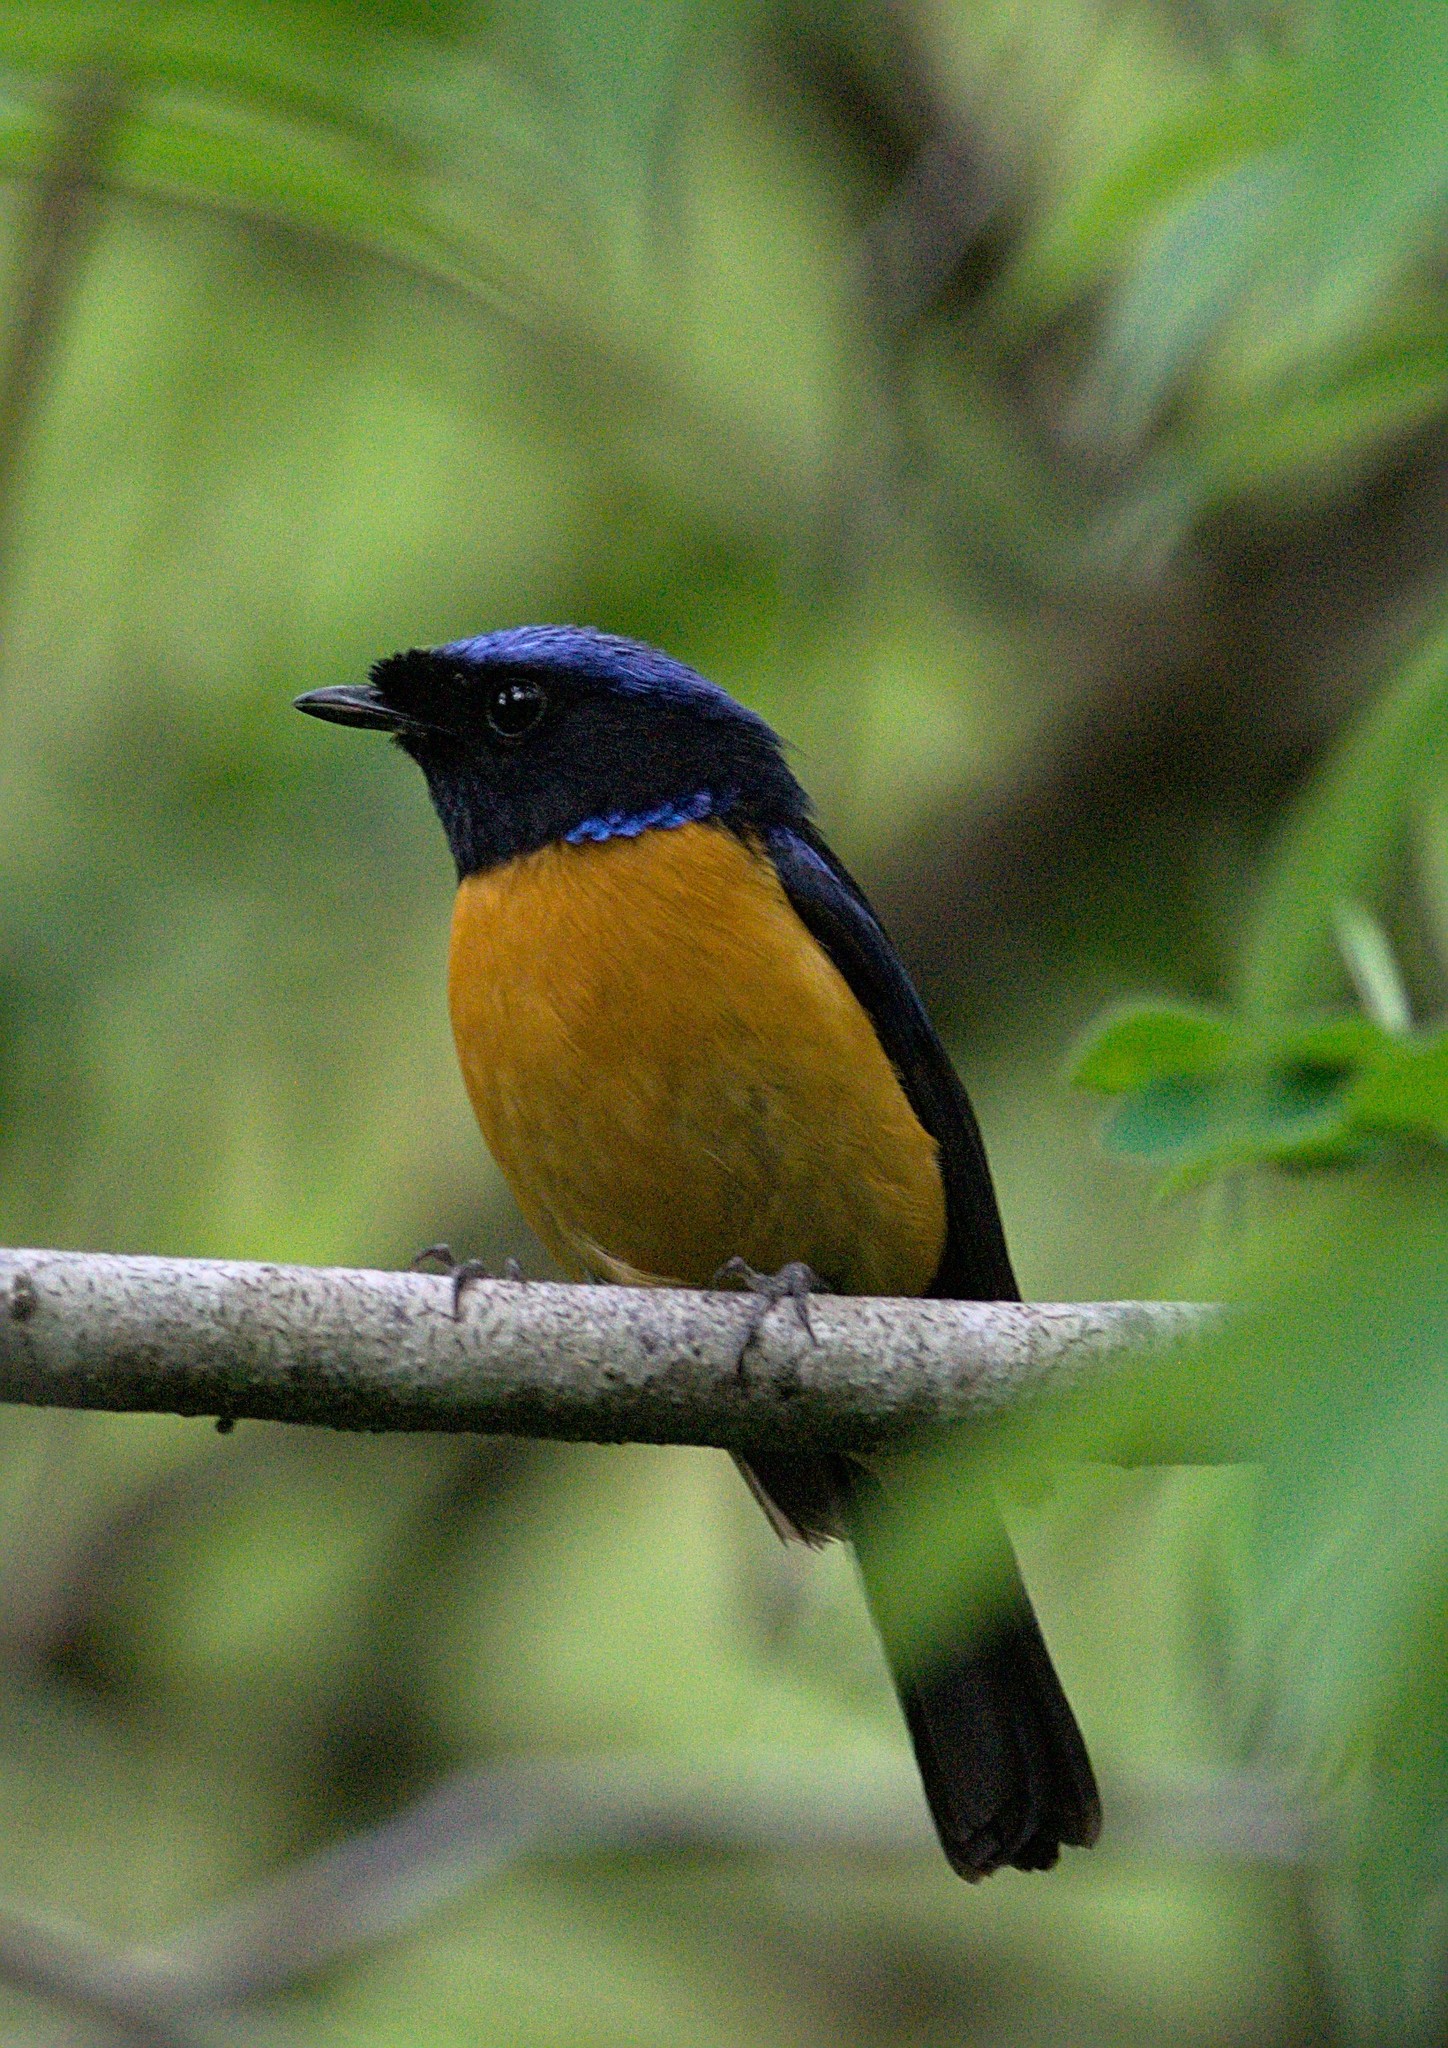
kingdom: Animalia
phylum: Chordata
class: Aves
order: Passeriformes
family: Muscicapidae
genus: Niltava
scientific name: Niltava sundara
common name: Rufous-bellied niltava
